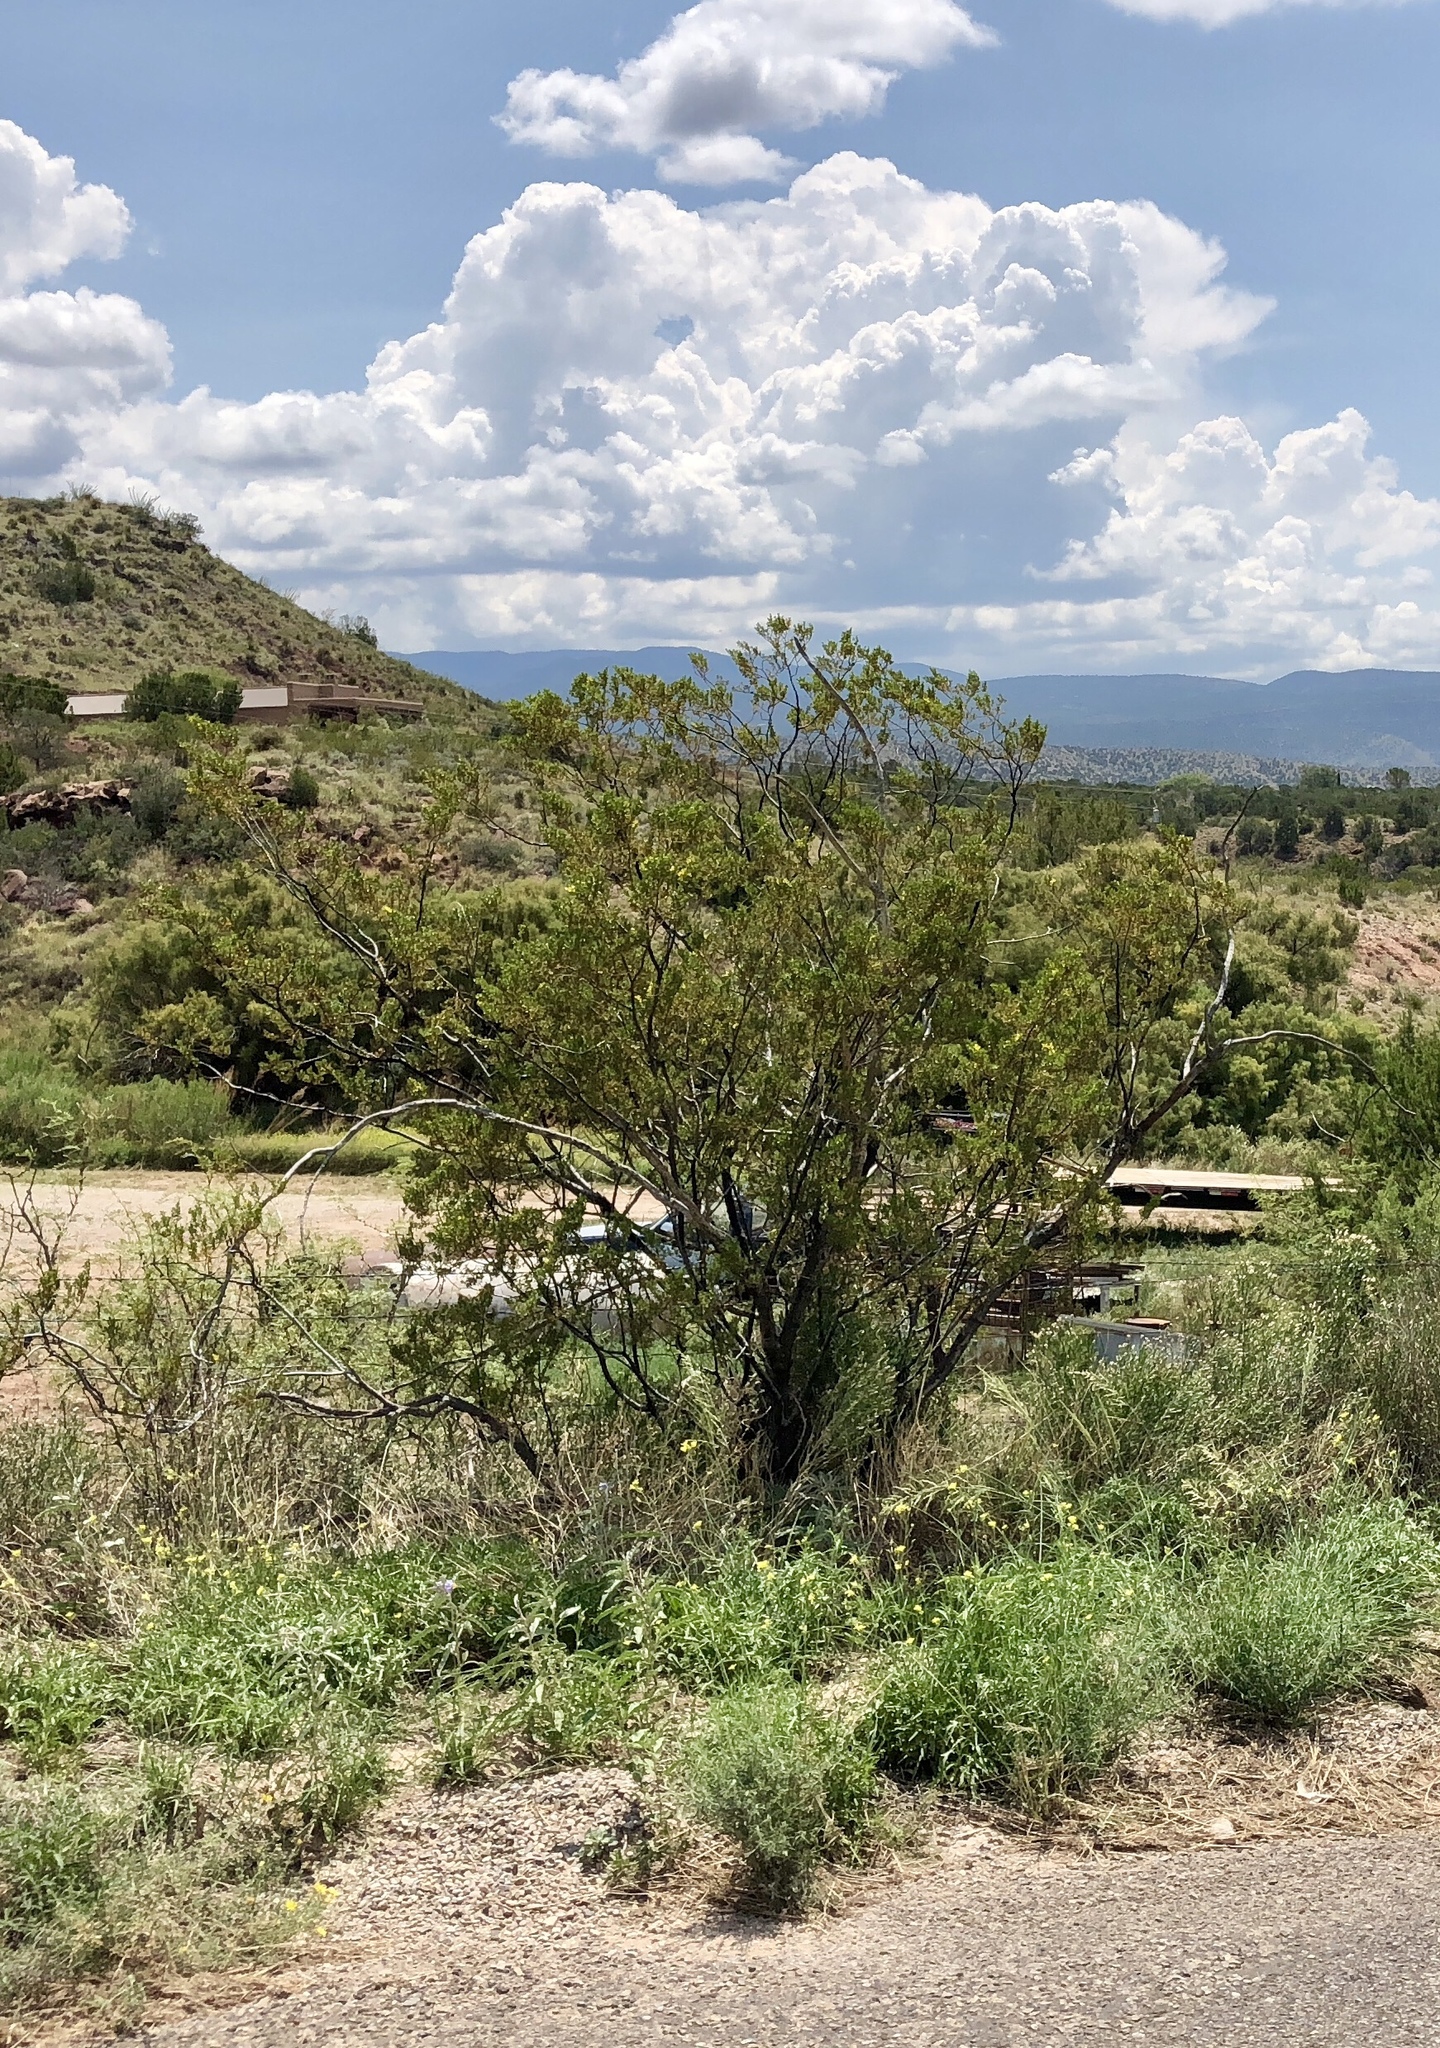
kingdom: Plantae
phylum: Tracheophyta
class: Magnoliopsida
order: Zygophyllales
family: Zygophyllaceae
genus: Larrea
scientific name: Larrea tridentata
